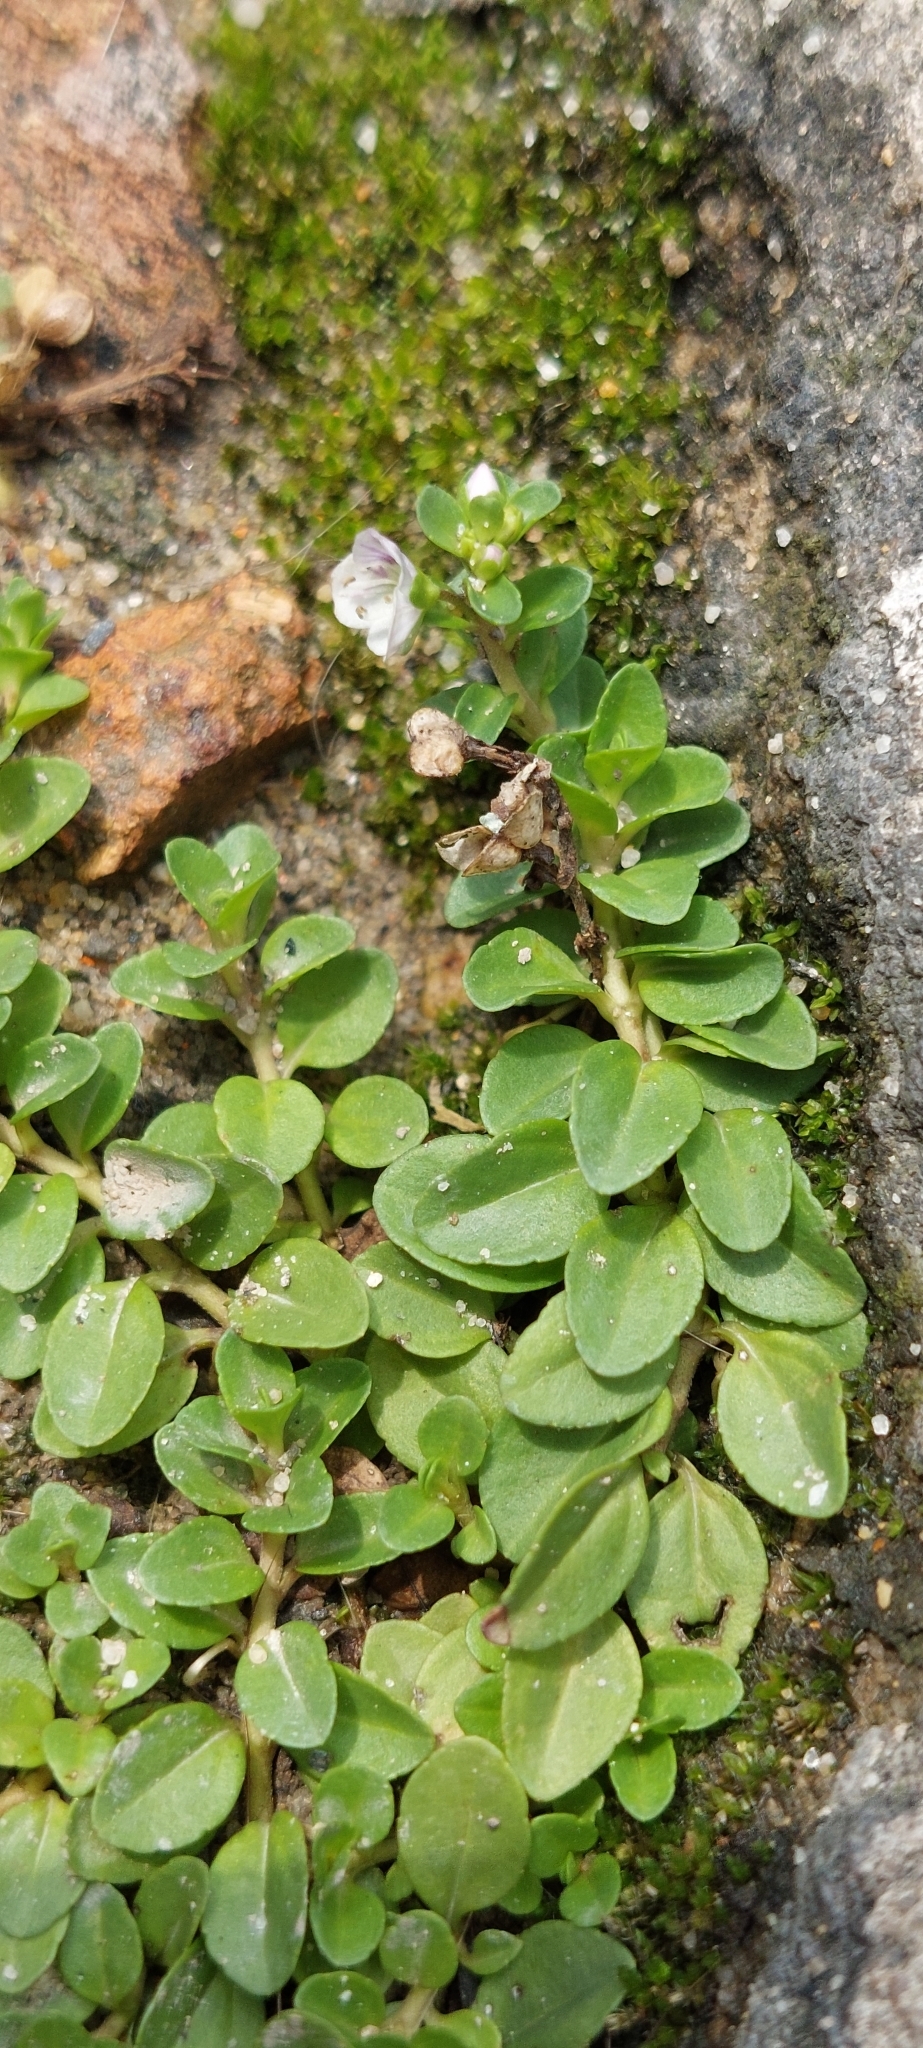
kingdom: Plantae
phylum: Tracheophyta
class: Magnoliopsida
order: Lamiales
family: Plantaginaceae
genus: Veronica
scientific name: Veronica serpyllifolia
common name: Thyme-leaved speedwell
